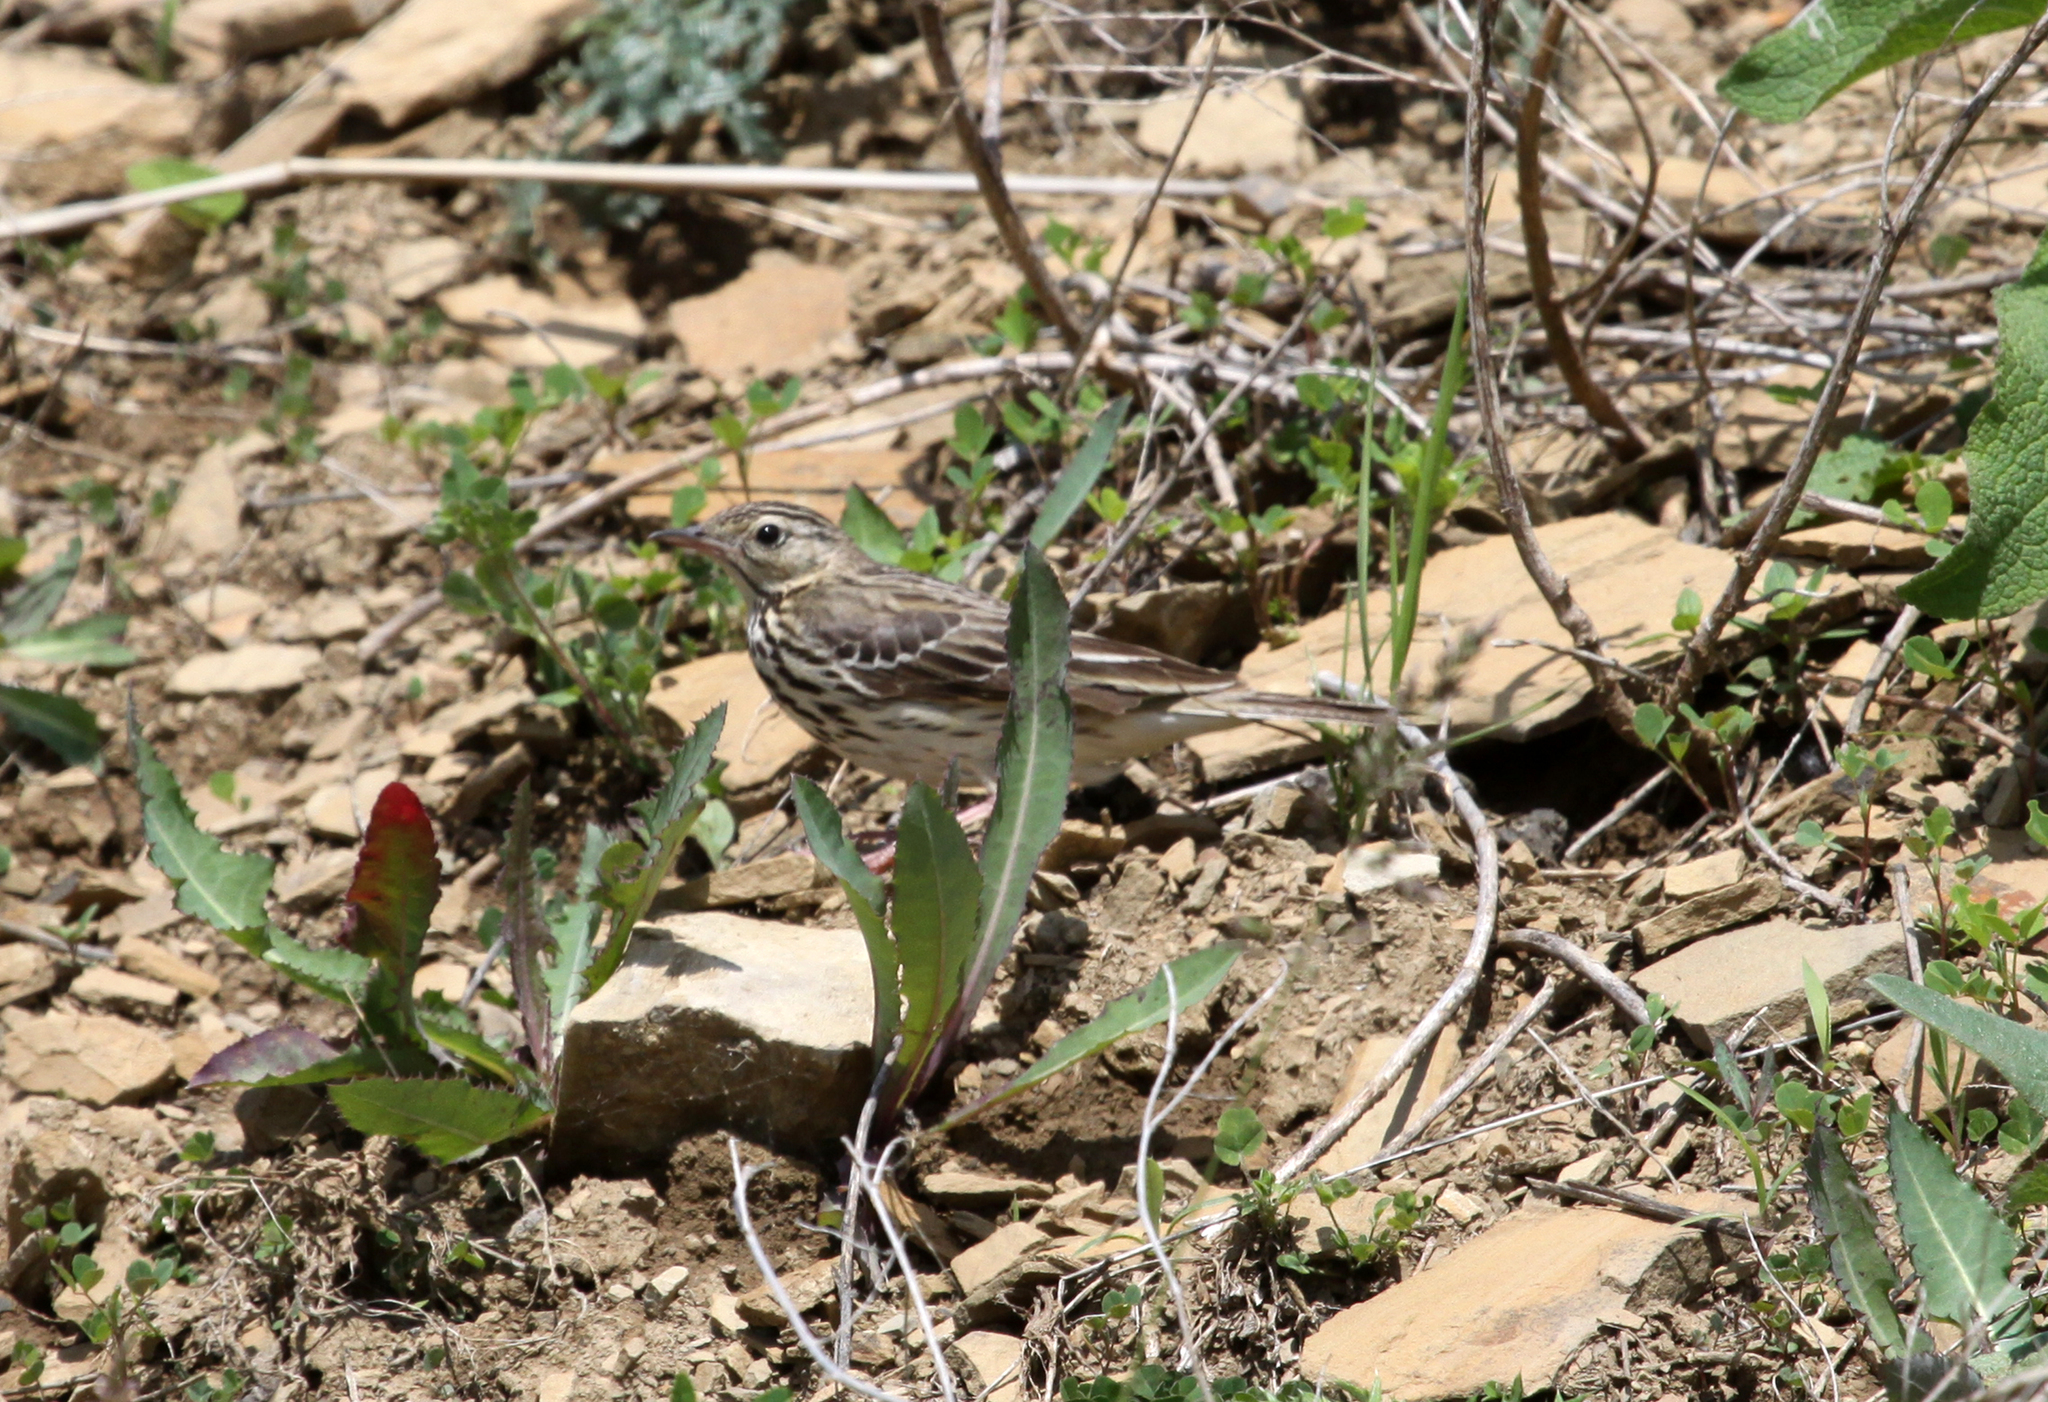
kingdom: Animalia
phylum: Chordata
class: Aves
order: Passeriformes
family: Motacillidae
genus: Anthus
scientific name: Anthus trivialis
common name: Tree pipit
